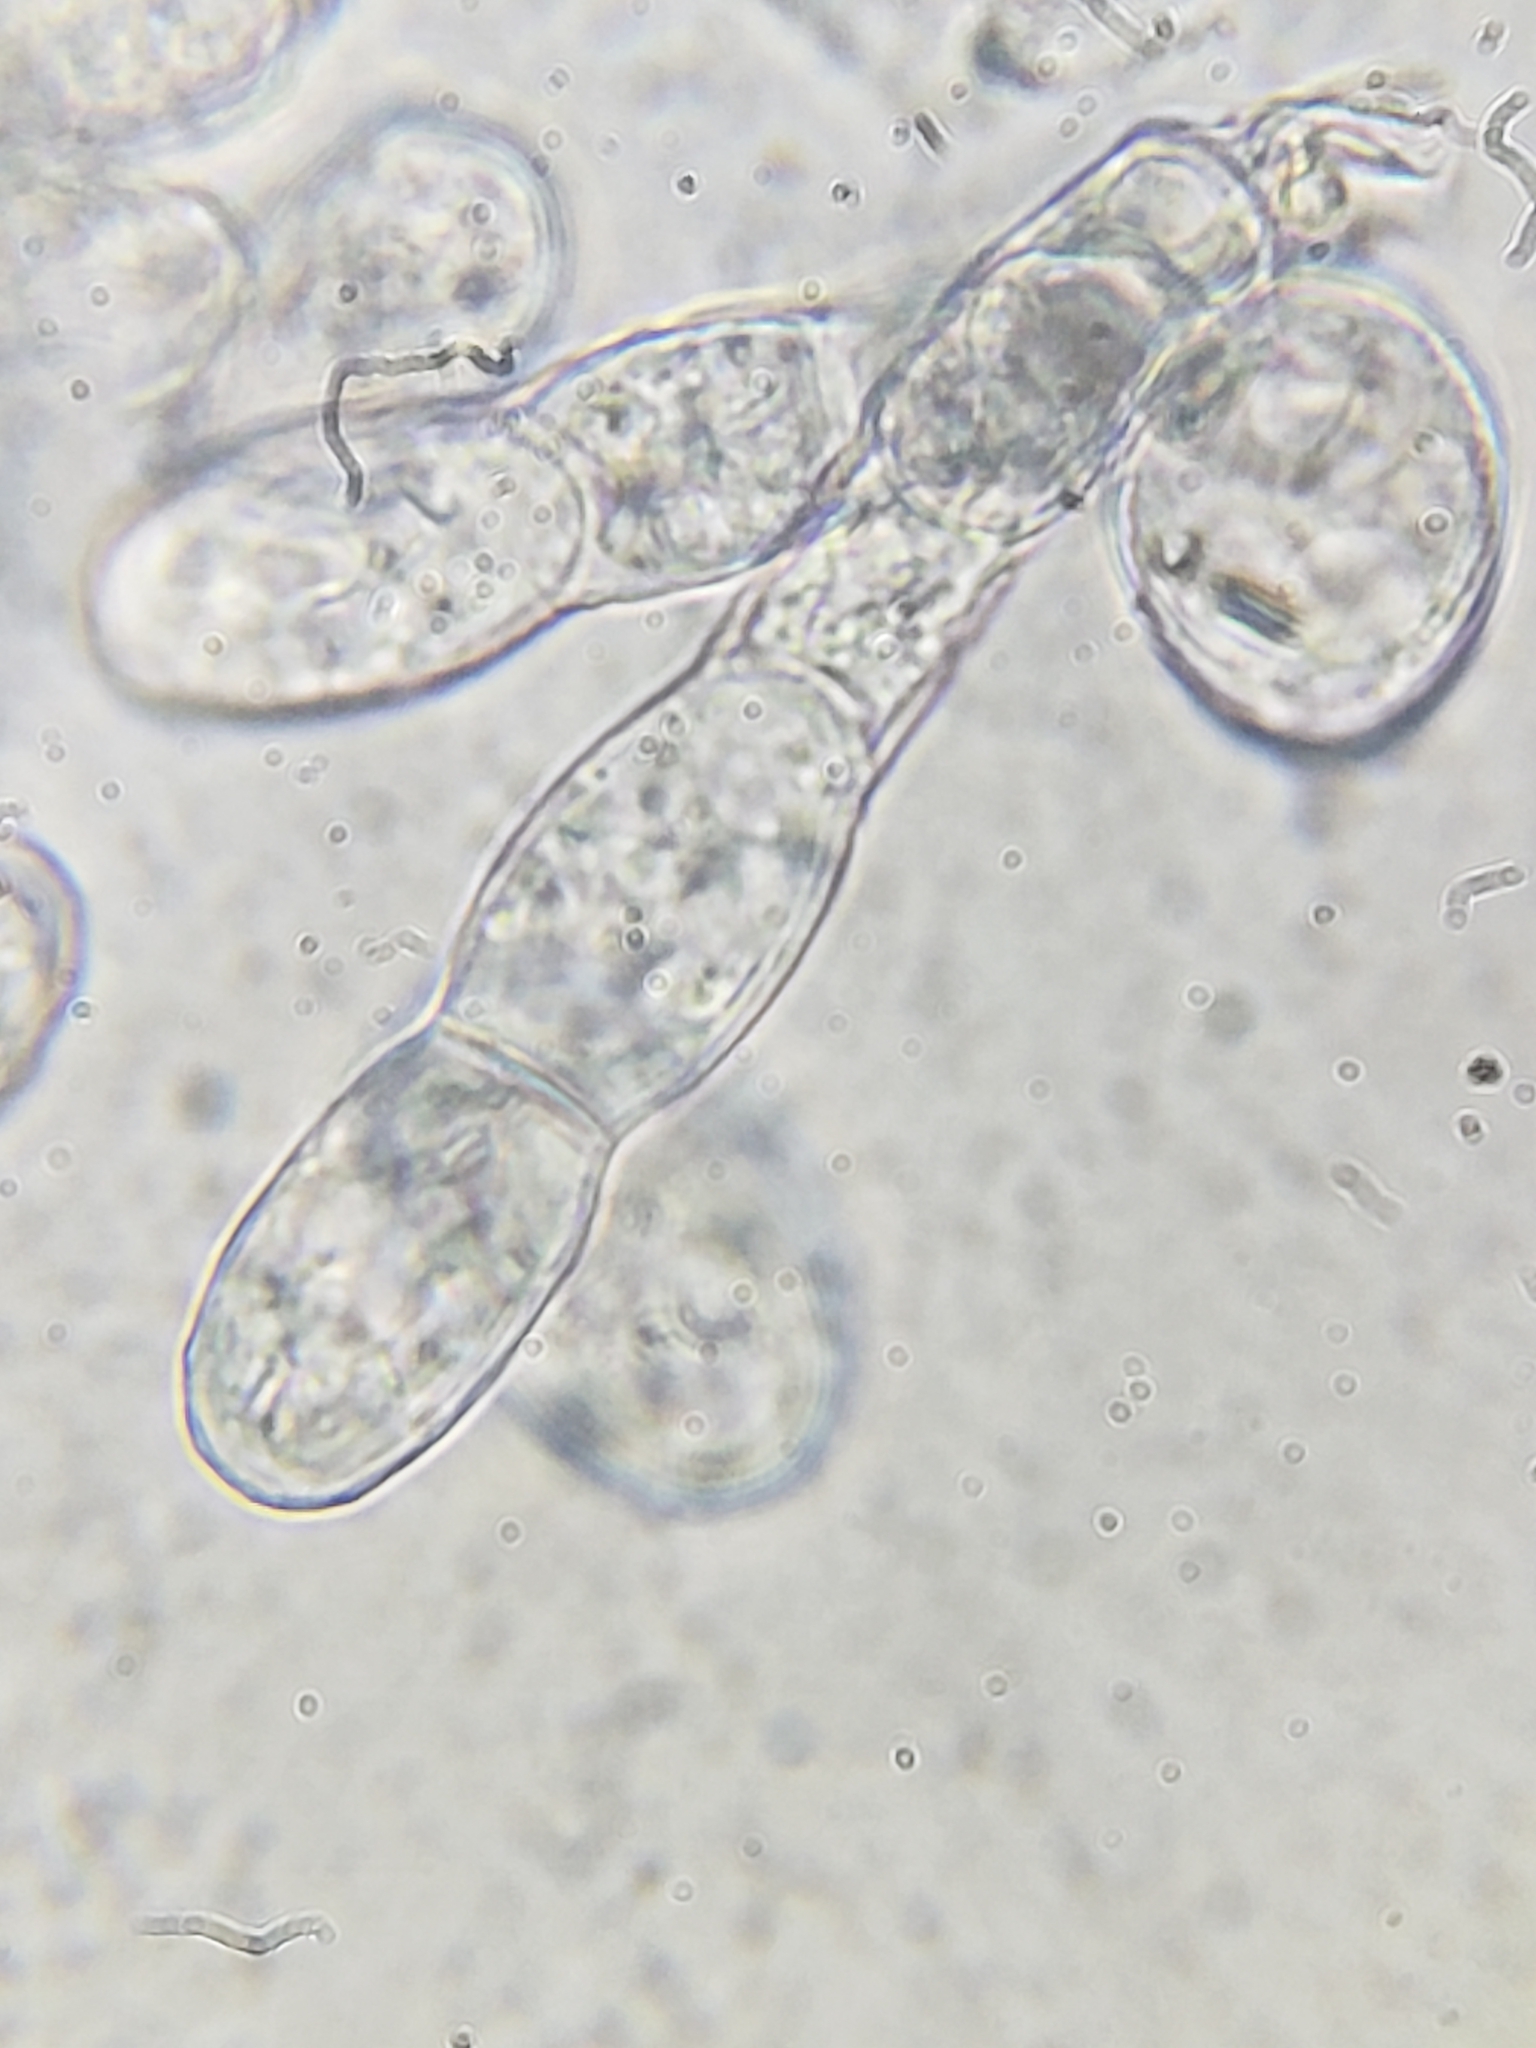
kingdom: Fungi
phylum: Ascomycota
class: Leotiomycetes
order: Helotiales
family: Erysiphaceae
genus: Podosphaera
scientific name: Podosphaera erigerontis-canadensis
